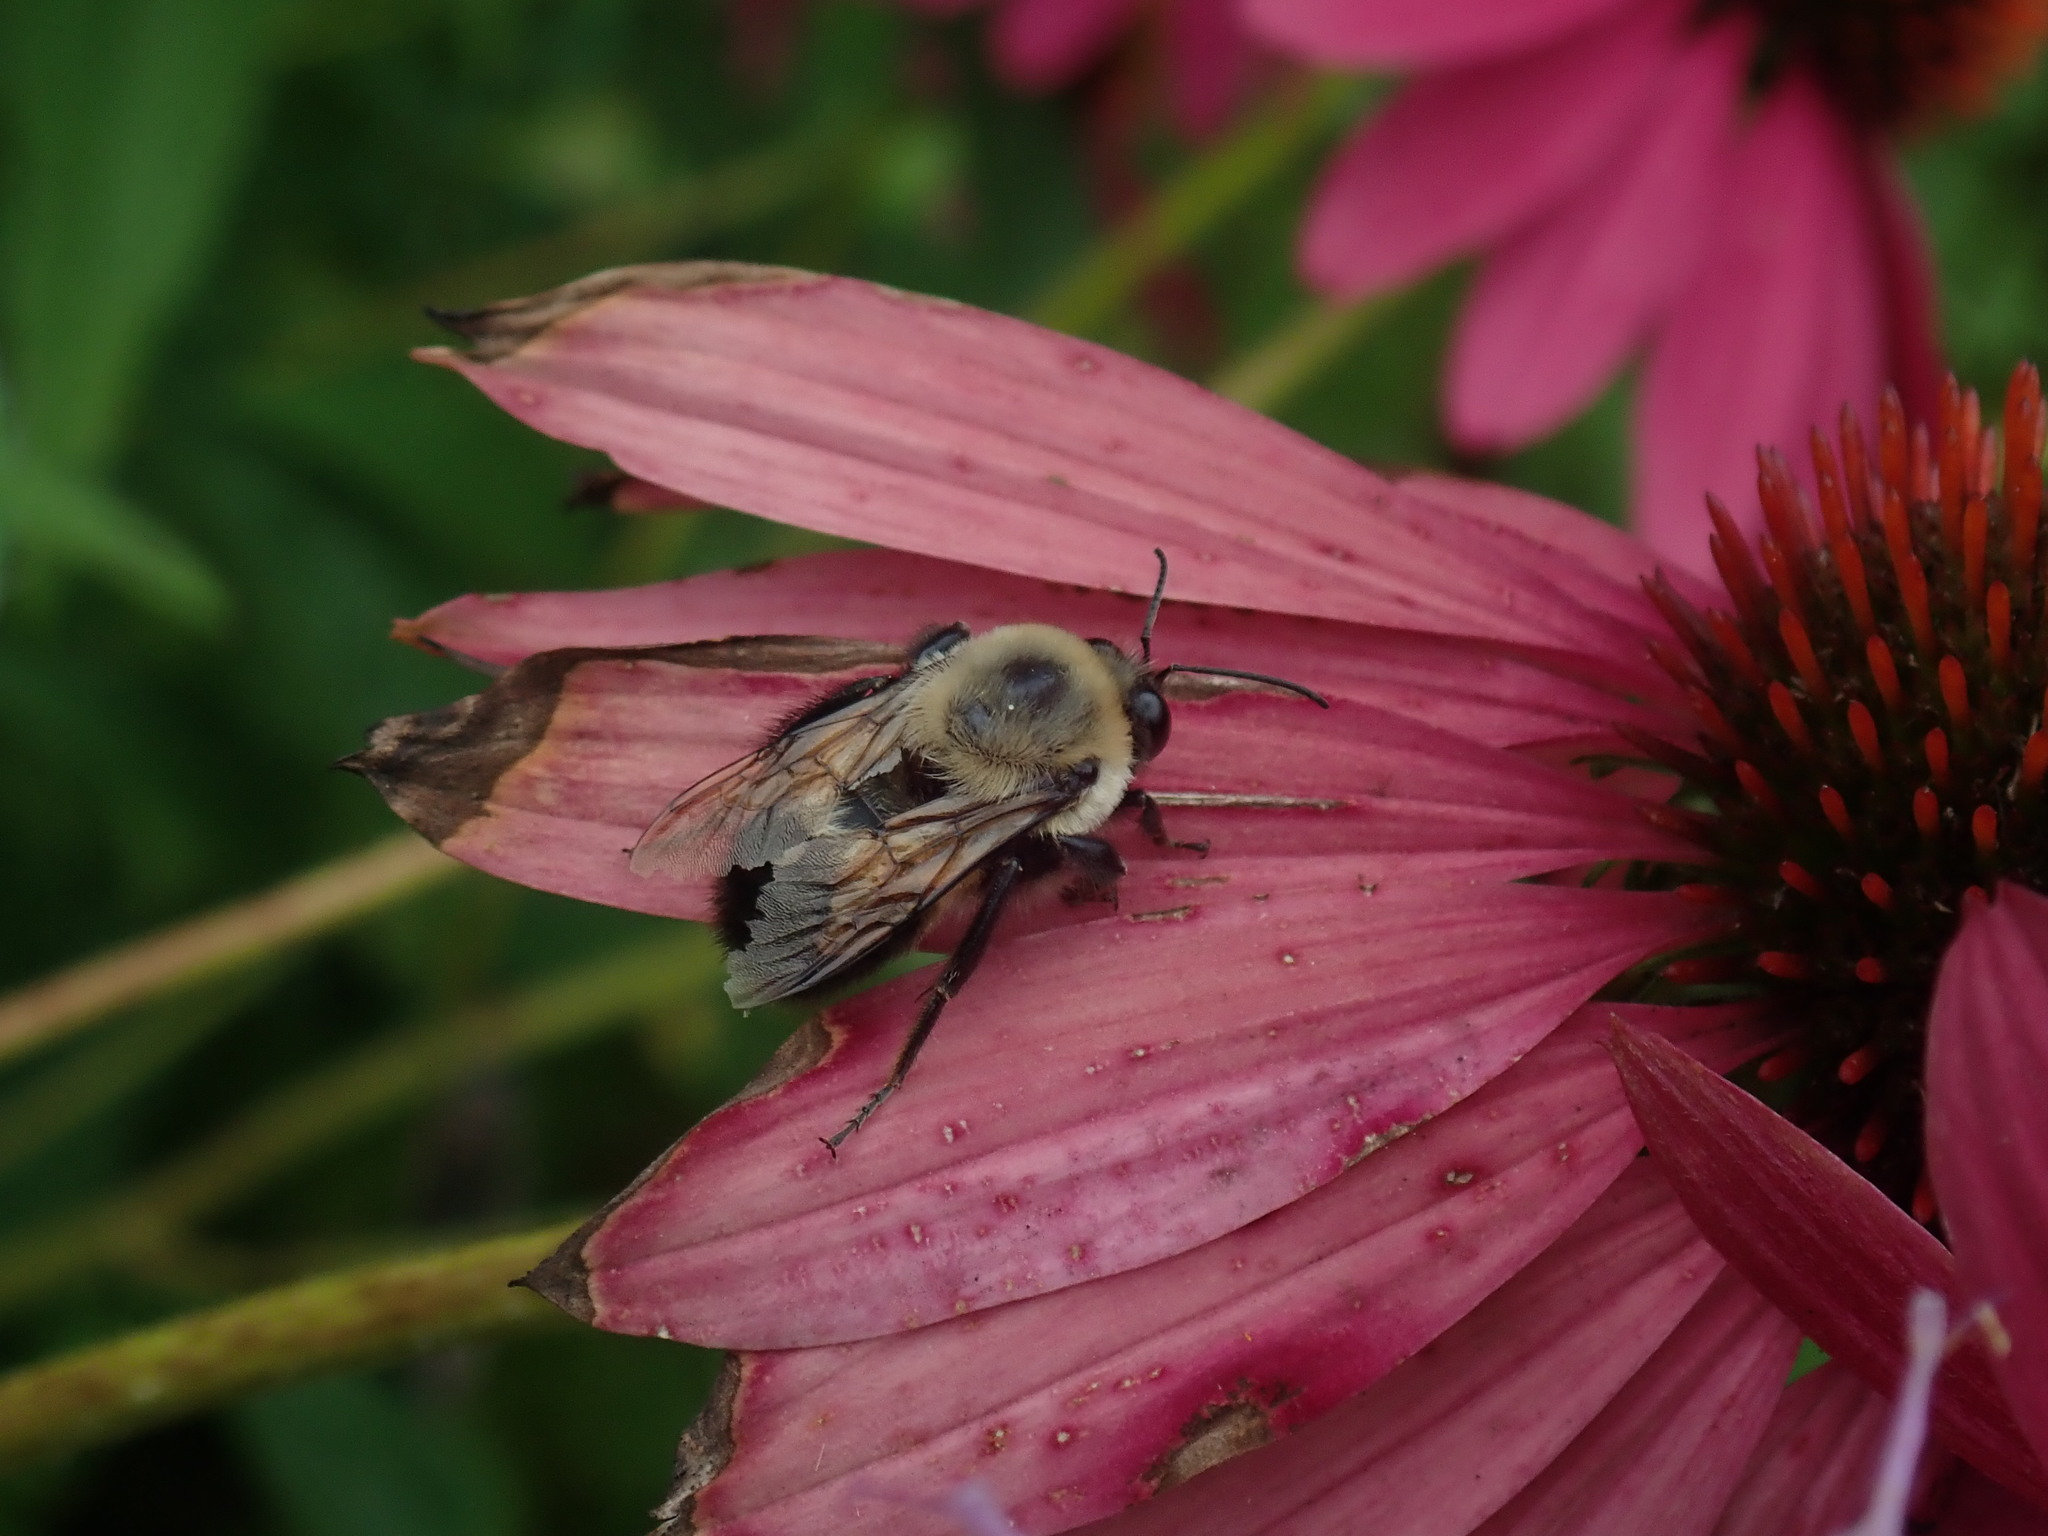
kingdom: Animalia
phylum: Arthropoda
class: Insecta
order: Hymenoptera
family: Apidae
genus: Bombus
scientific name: Bombus griseocollis
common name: Brown-belted bumble bee
